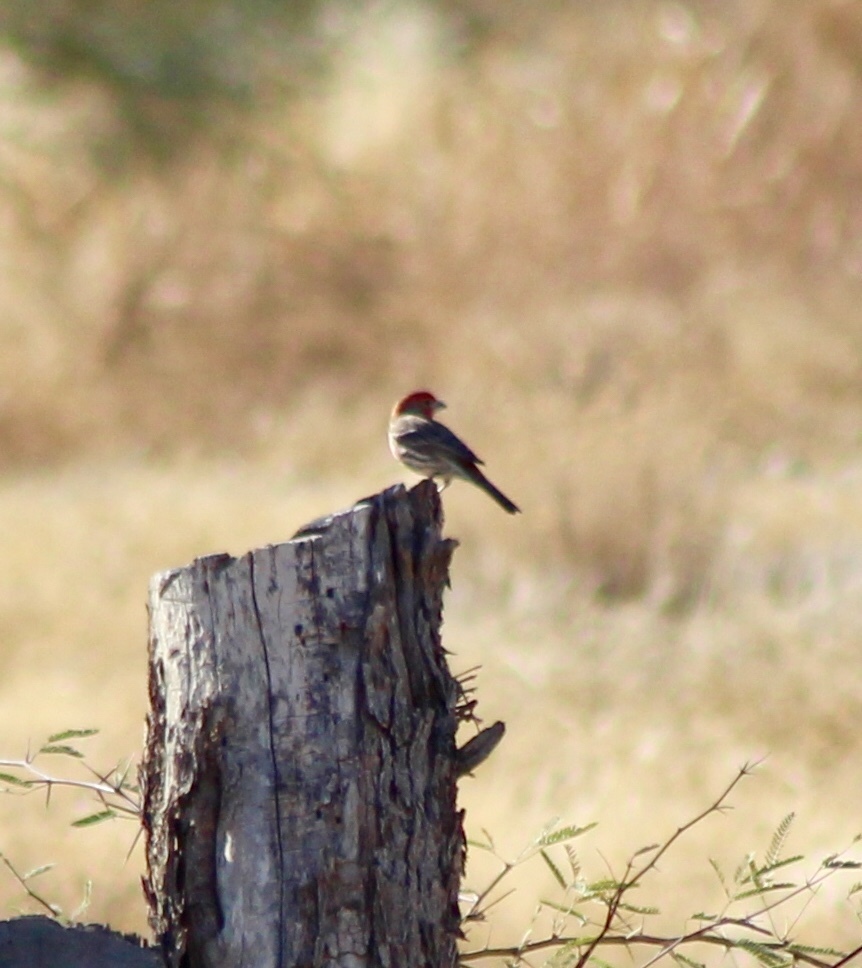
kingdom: Animalia
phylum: Chordata
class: Aves
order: Passeriformes
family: Fringillidae
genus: Haemorhous
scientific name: Haemorhous mexicanus
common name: House finch
